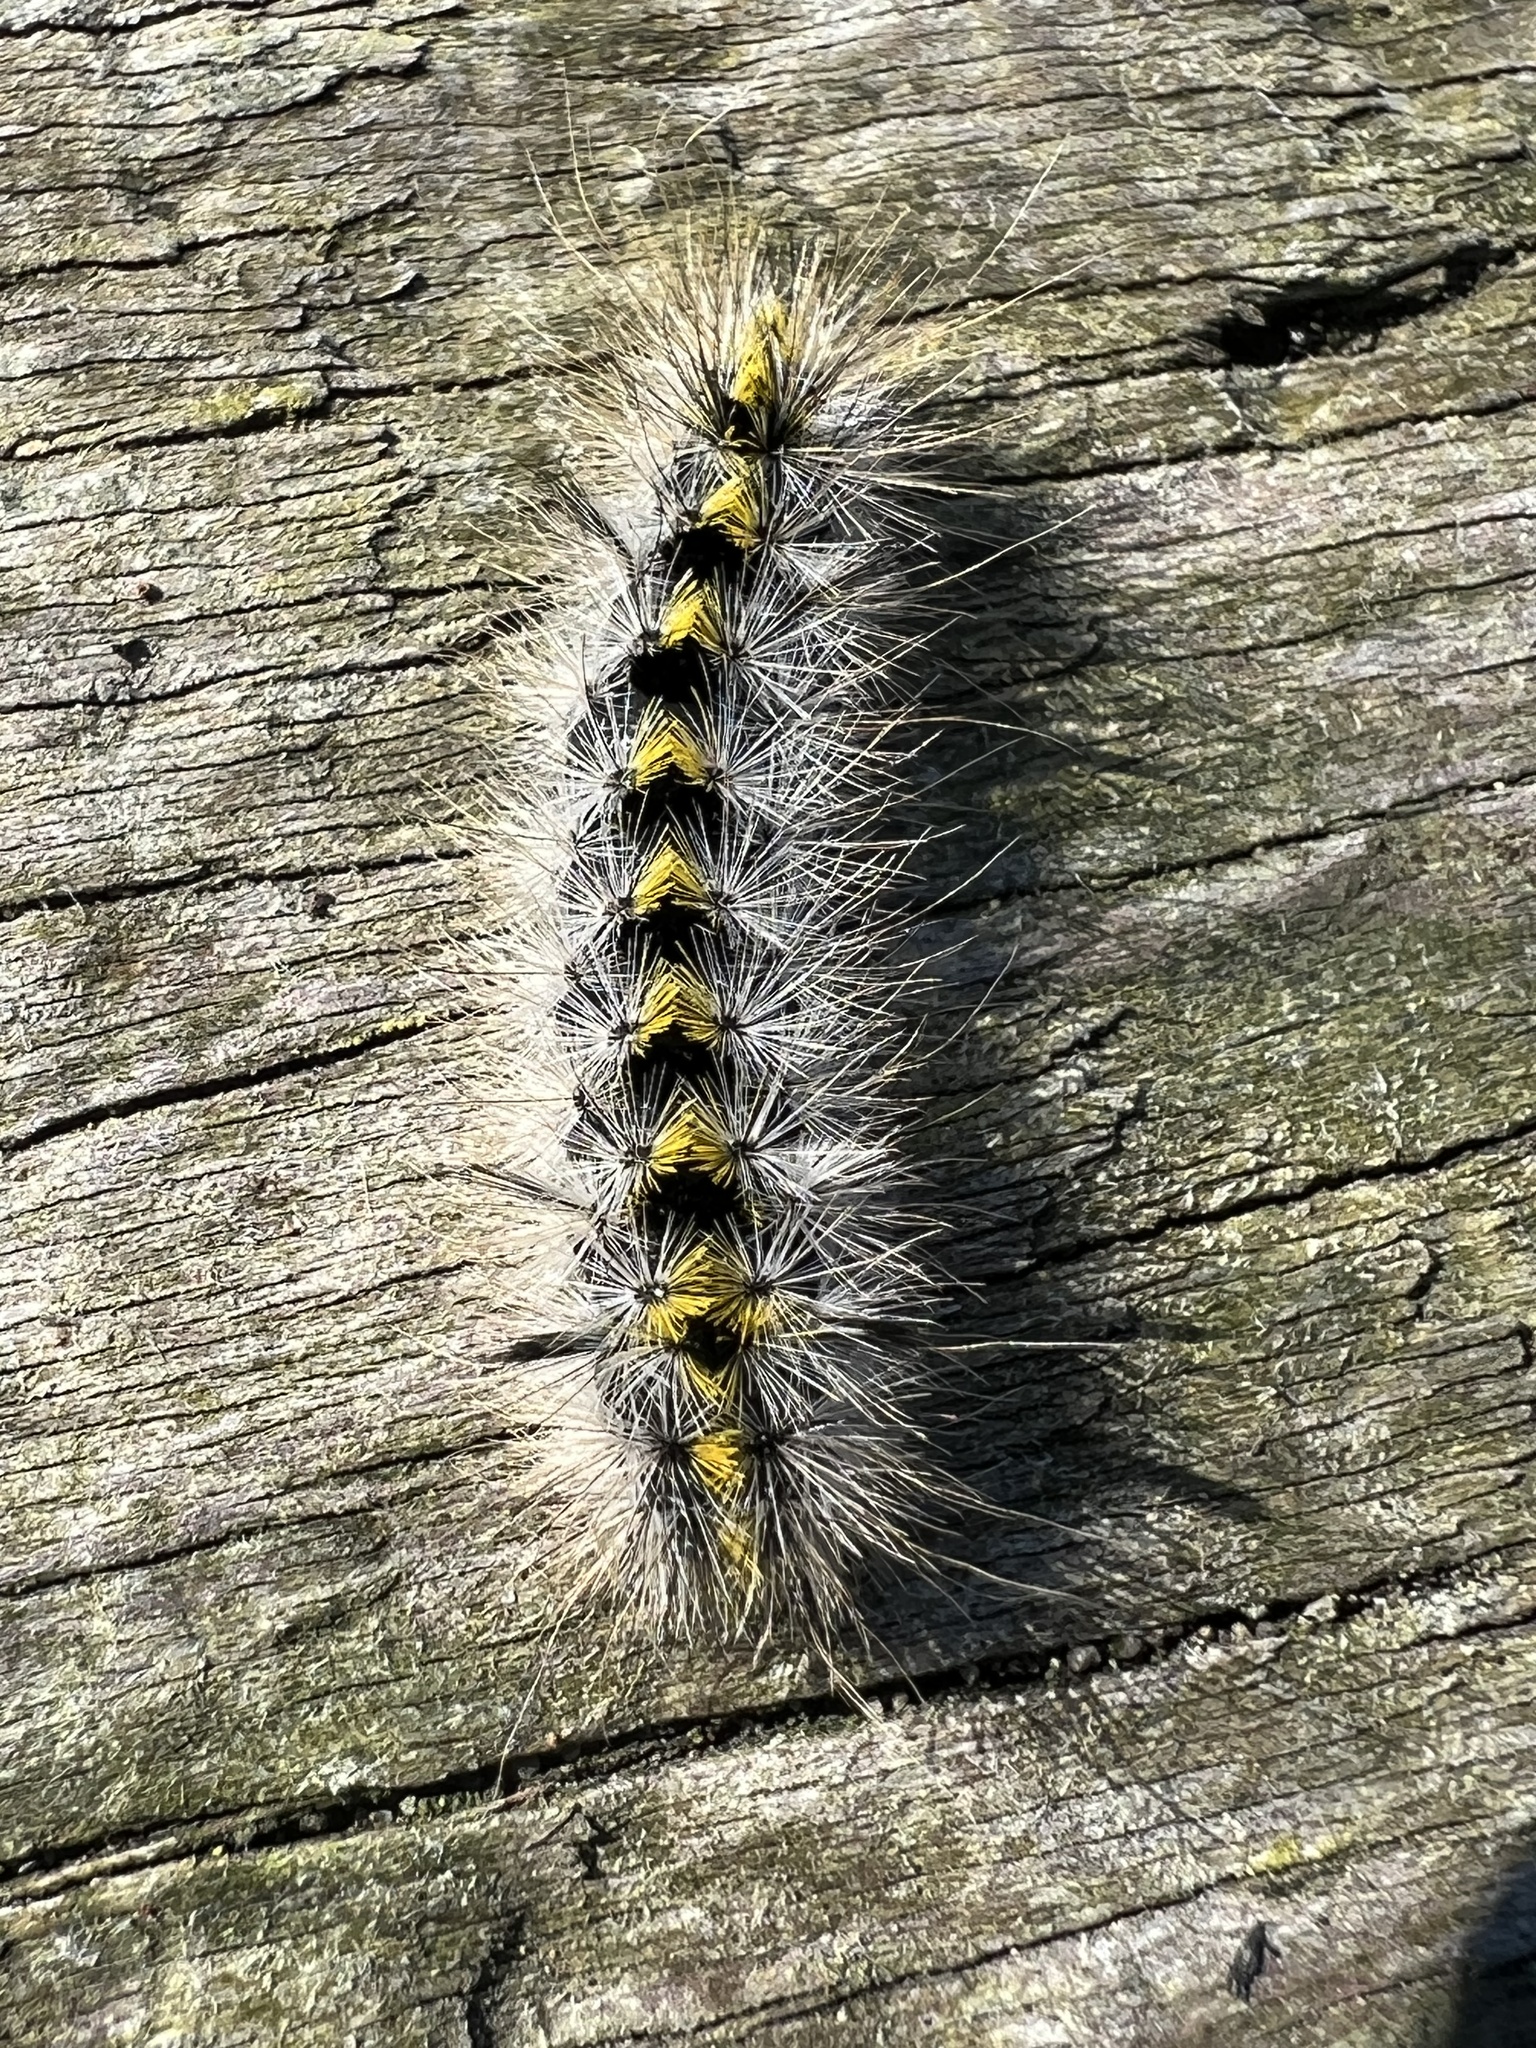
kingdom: Animalia
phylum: Arthropoda
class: Insecta
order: Lepidoptera
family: Erebidae
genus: Lophocampa
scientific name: Lophocampa sobrina
